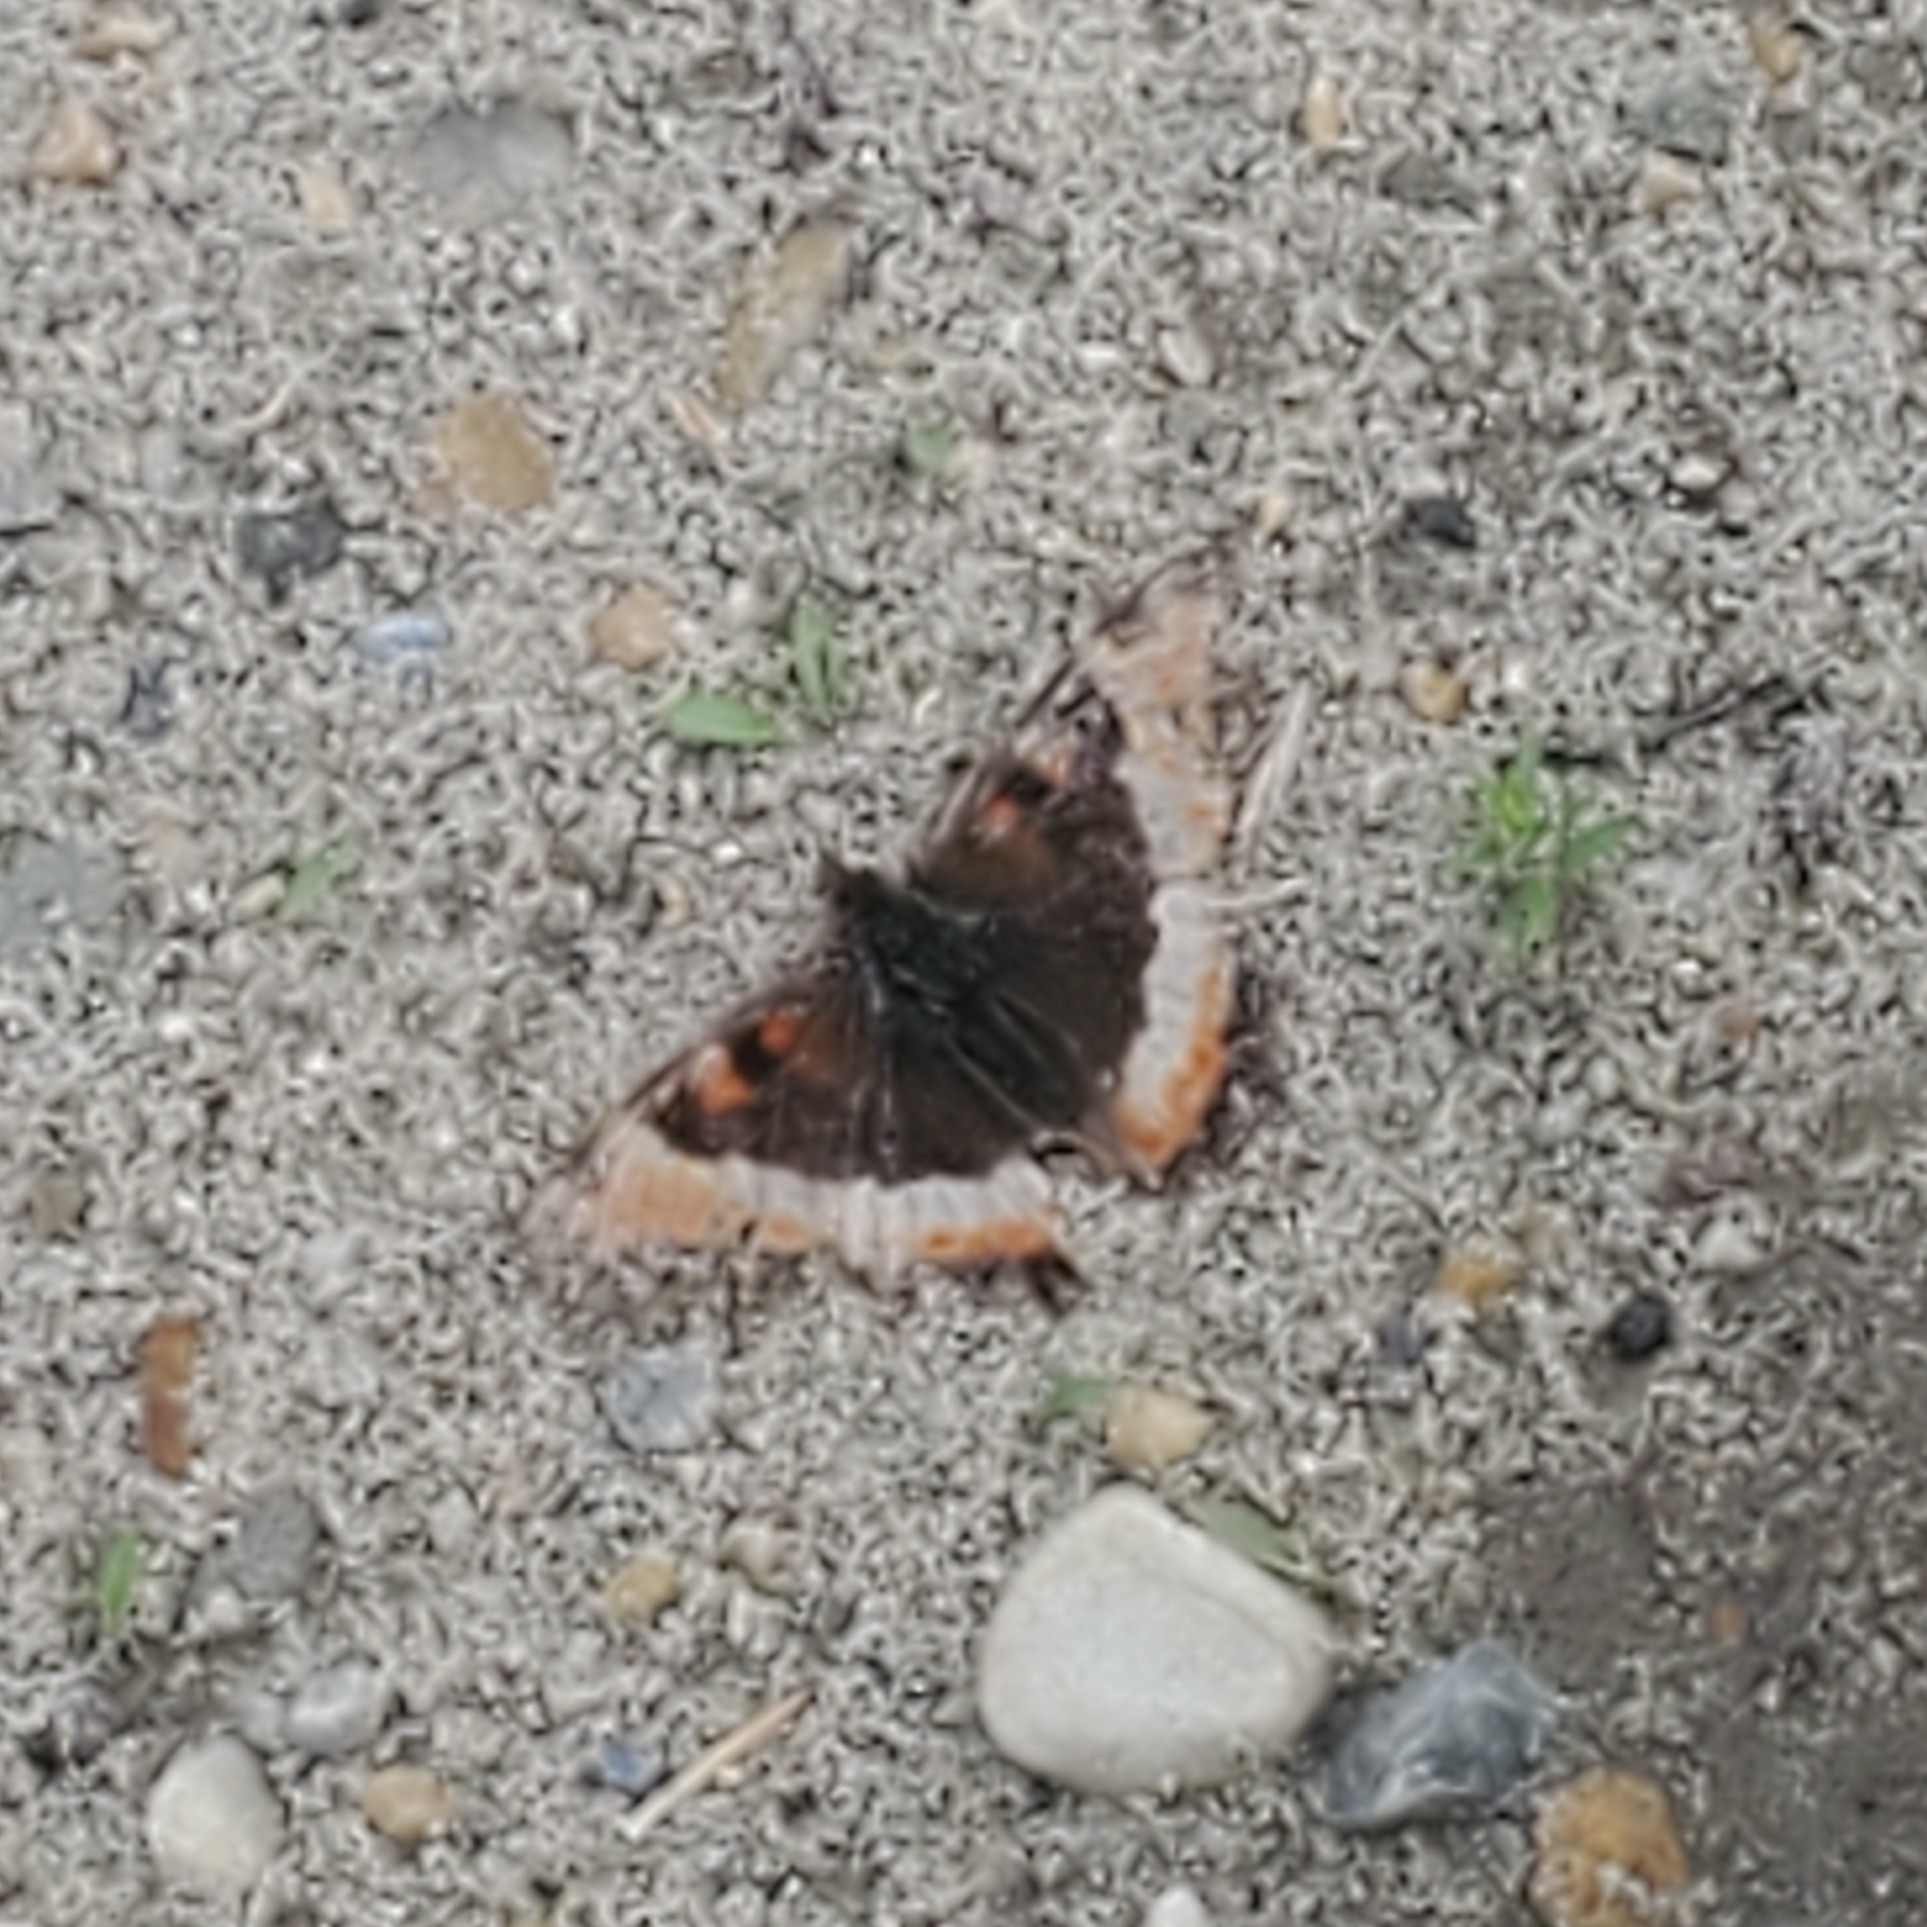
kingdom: Animalia
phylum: Arthropoda
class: Insecta
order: Lepidoptera
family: Nymphalidae
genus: Aglais
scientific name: Aglais milberti
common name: Milbert's tortoiseshell
